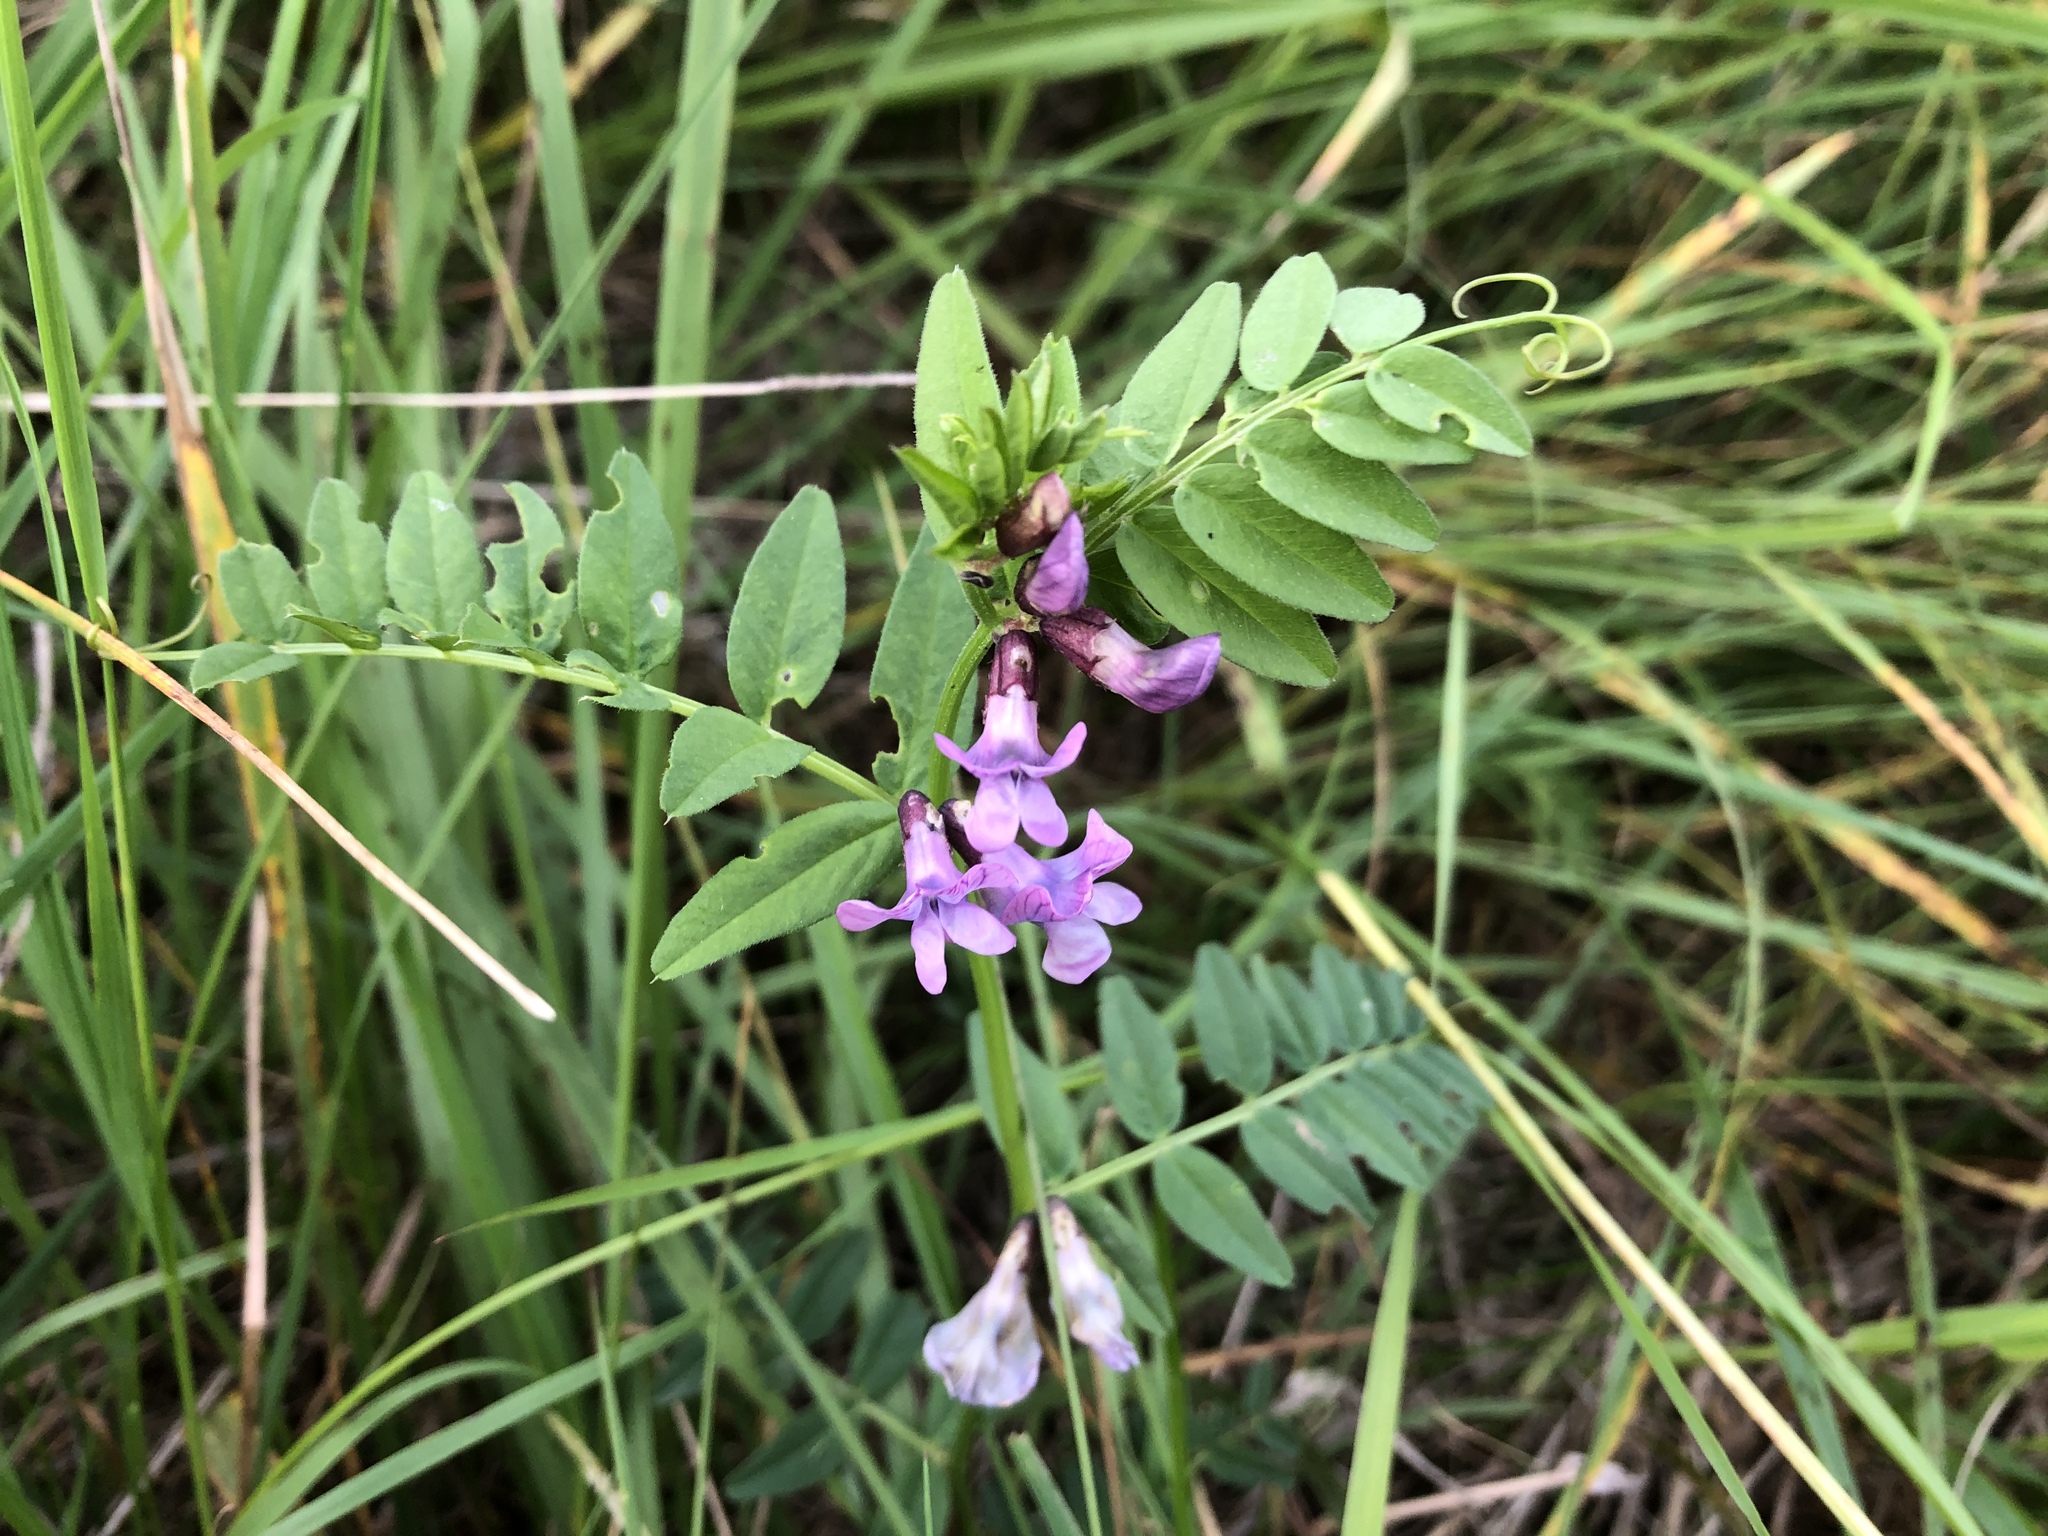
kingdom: Plantae
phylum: Tracheophyta
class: Magnoliopsida
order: Fabales
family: Fabaceae
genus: Vicia
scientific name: Vicia sepium
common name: Bush vetch
